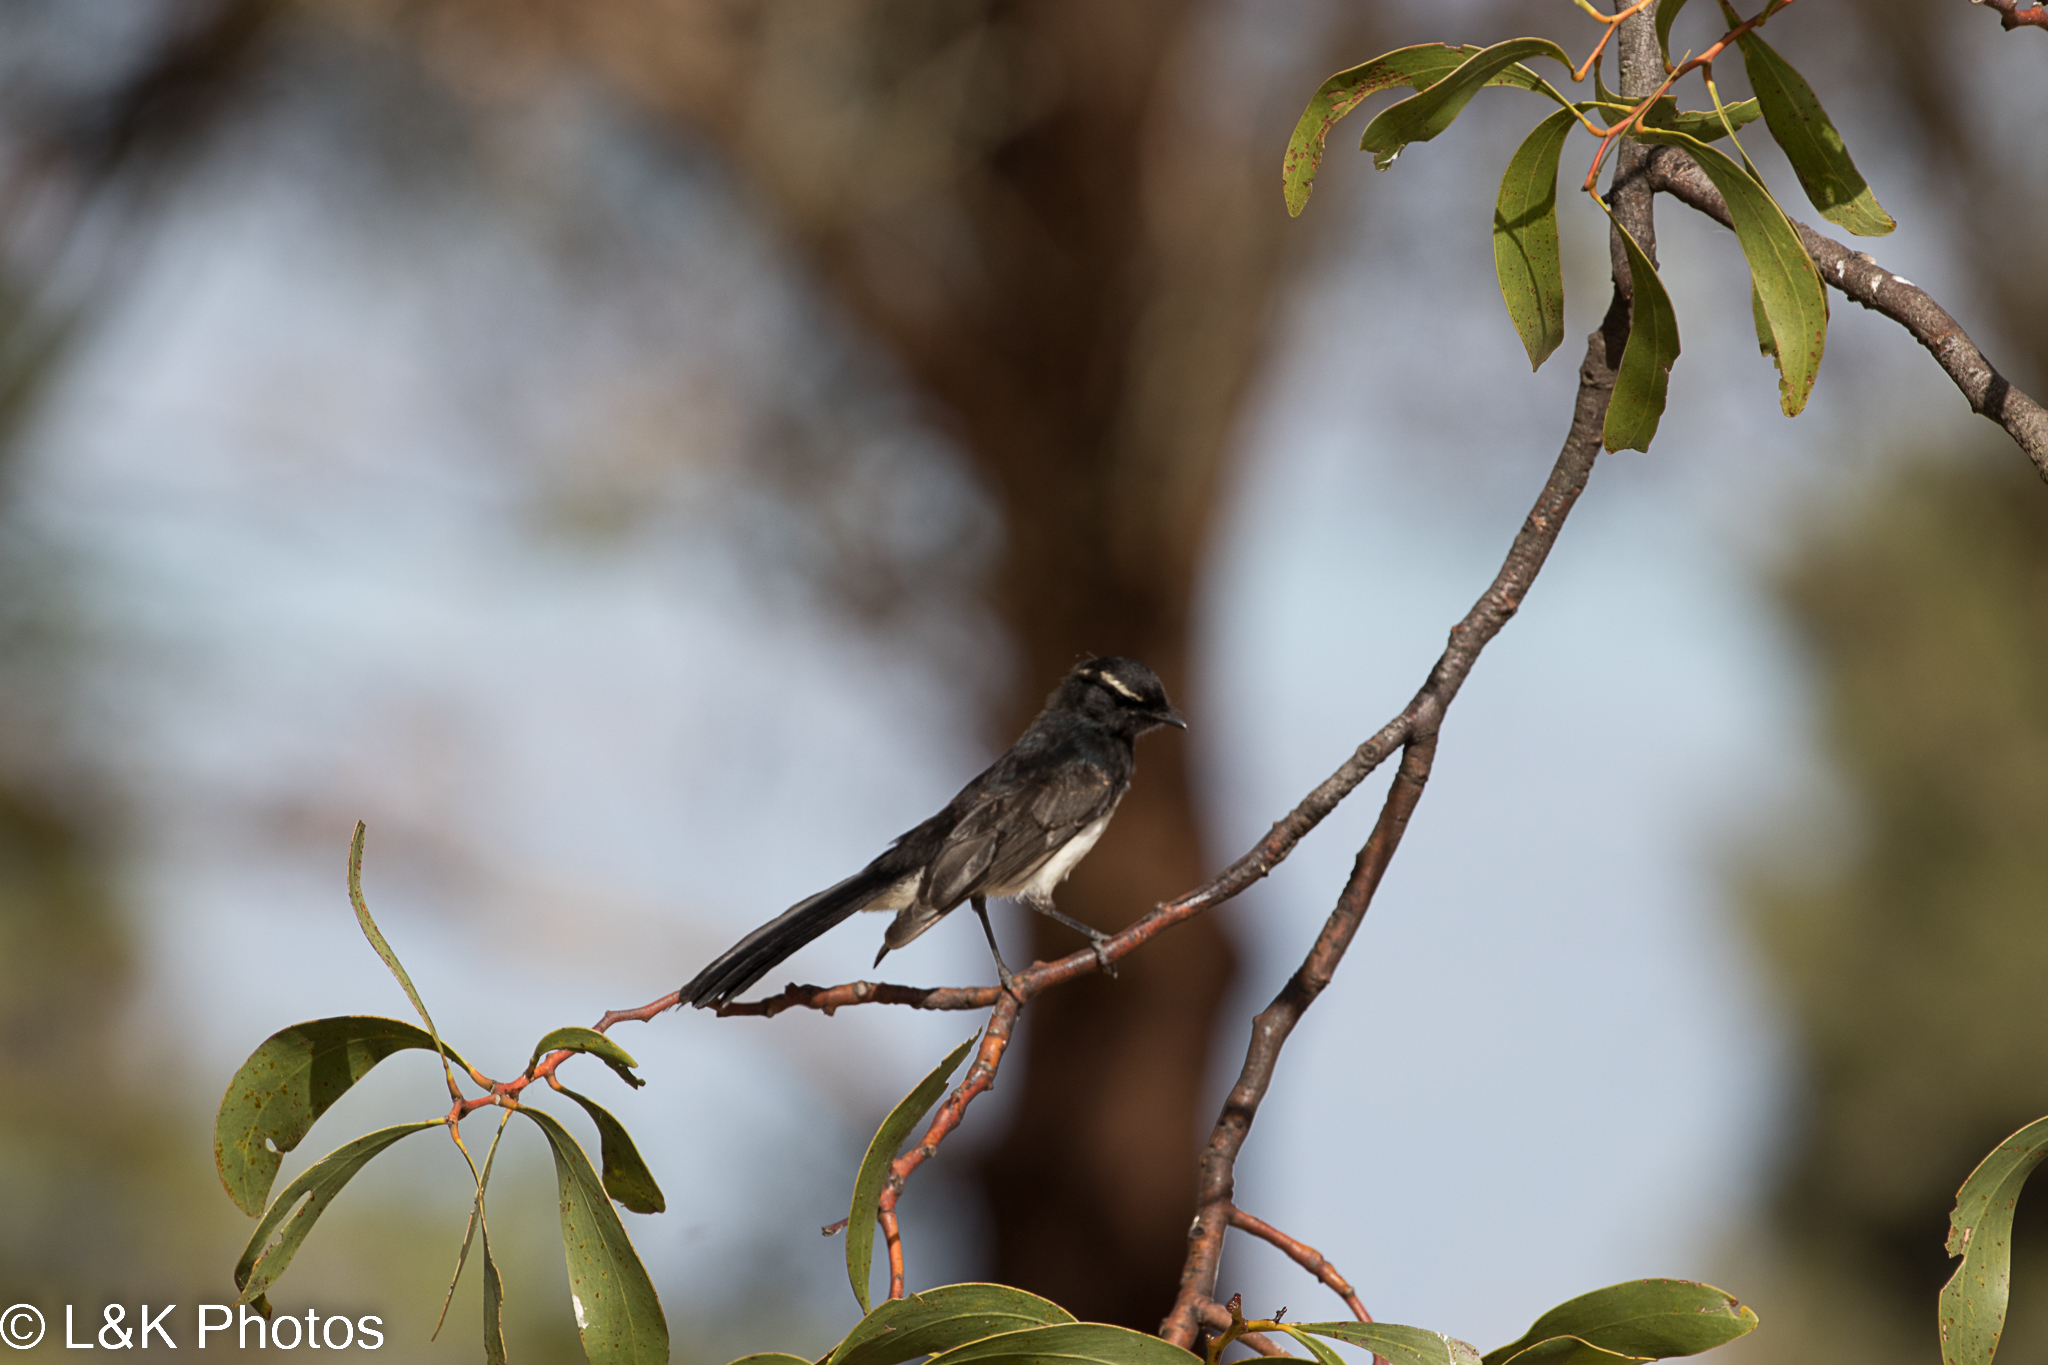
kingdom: Animalia
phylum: Chordata
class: Aves
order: Passeriformes
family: Rhipiduridae
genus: Rhipidura
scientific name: Rhipidura leucophrys
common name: Willie wagtail
